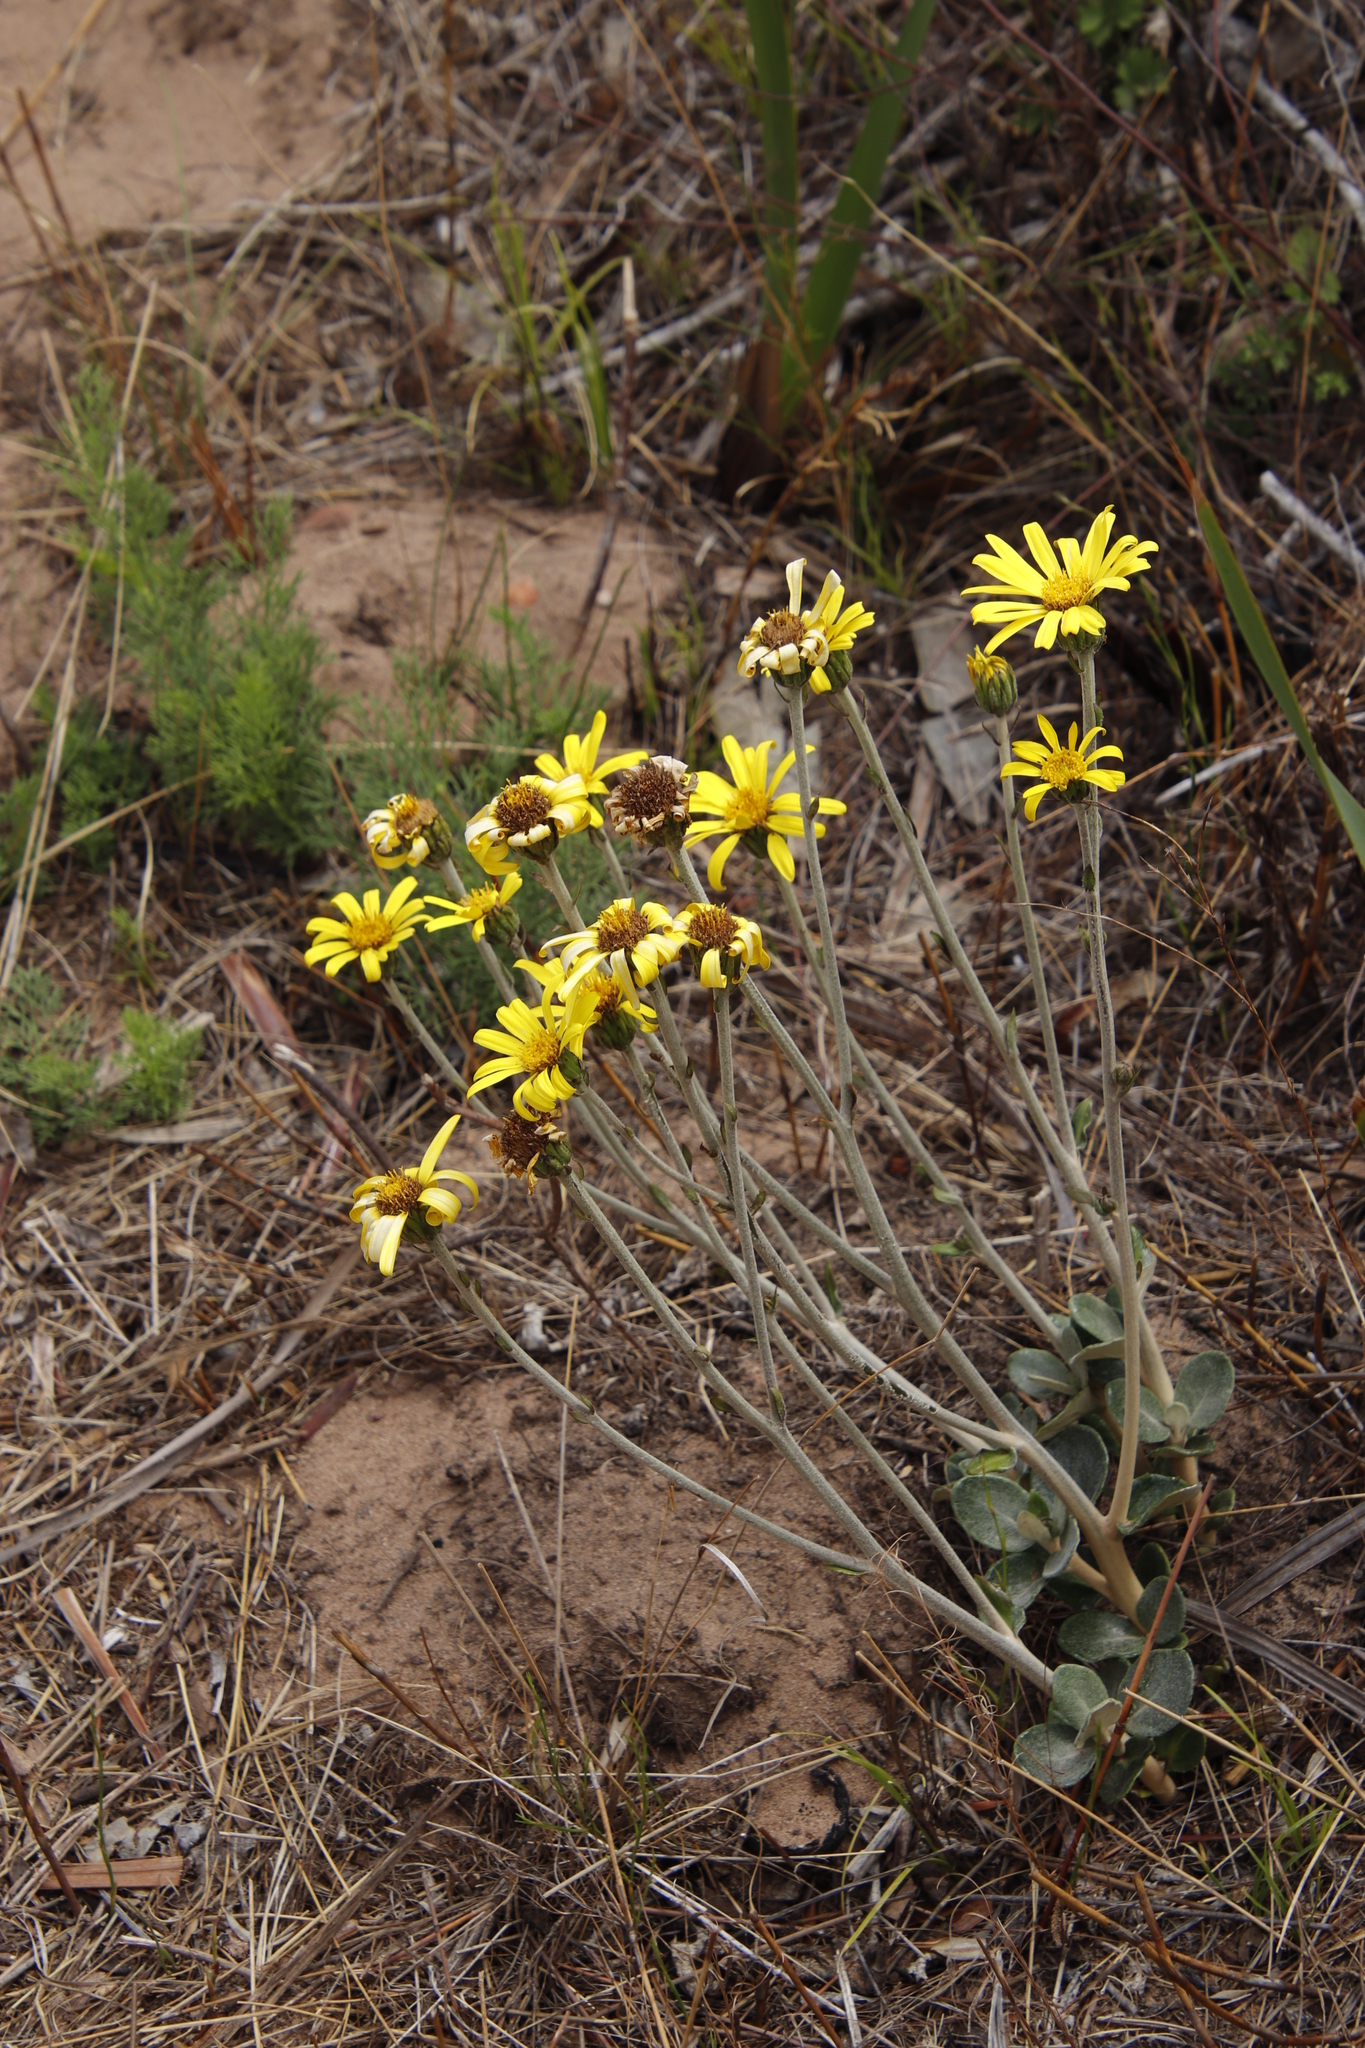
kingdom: Plantae
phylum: Tracheophyta
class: Magnoliopsida
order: Asterales
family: Asteraceae
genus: Capelio
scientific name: Capelio tabularis
